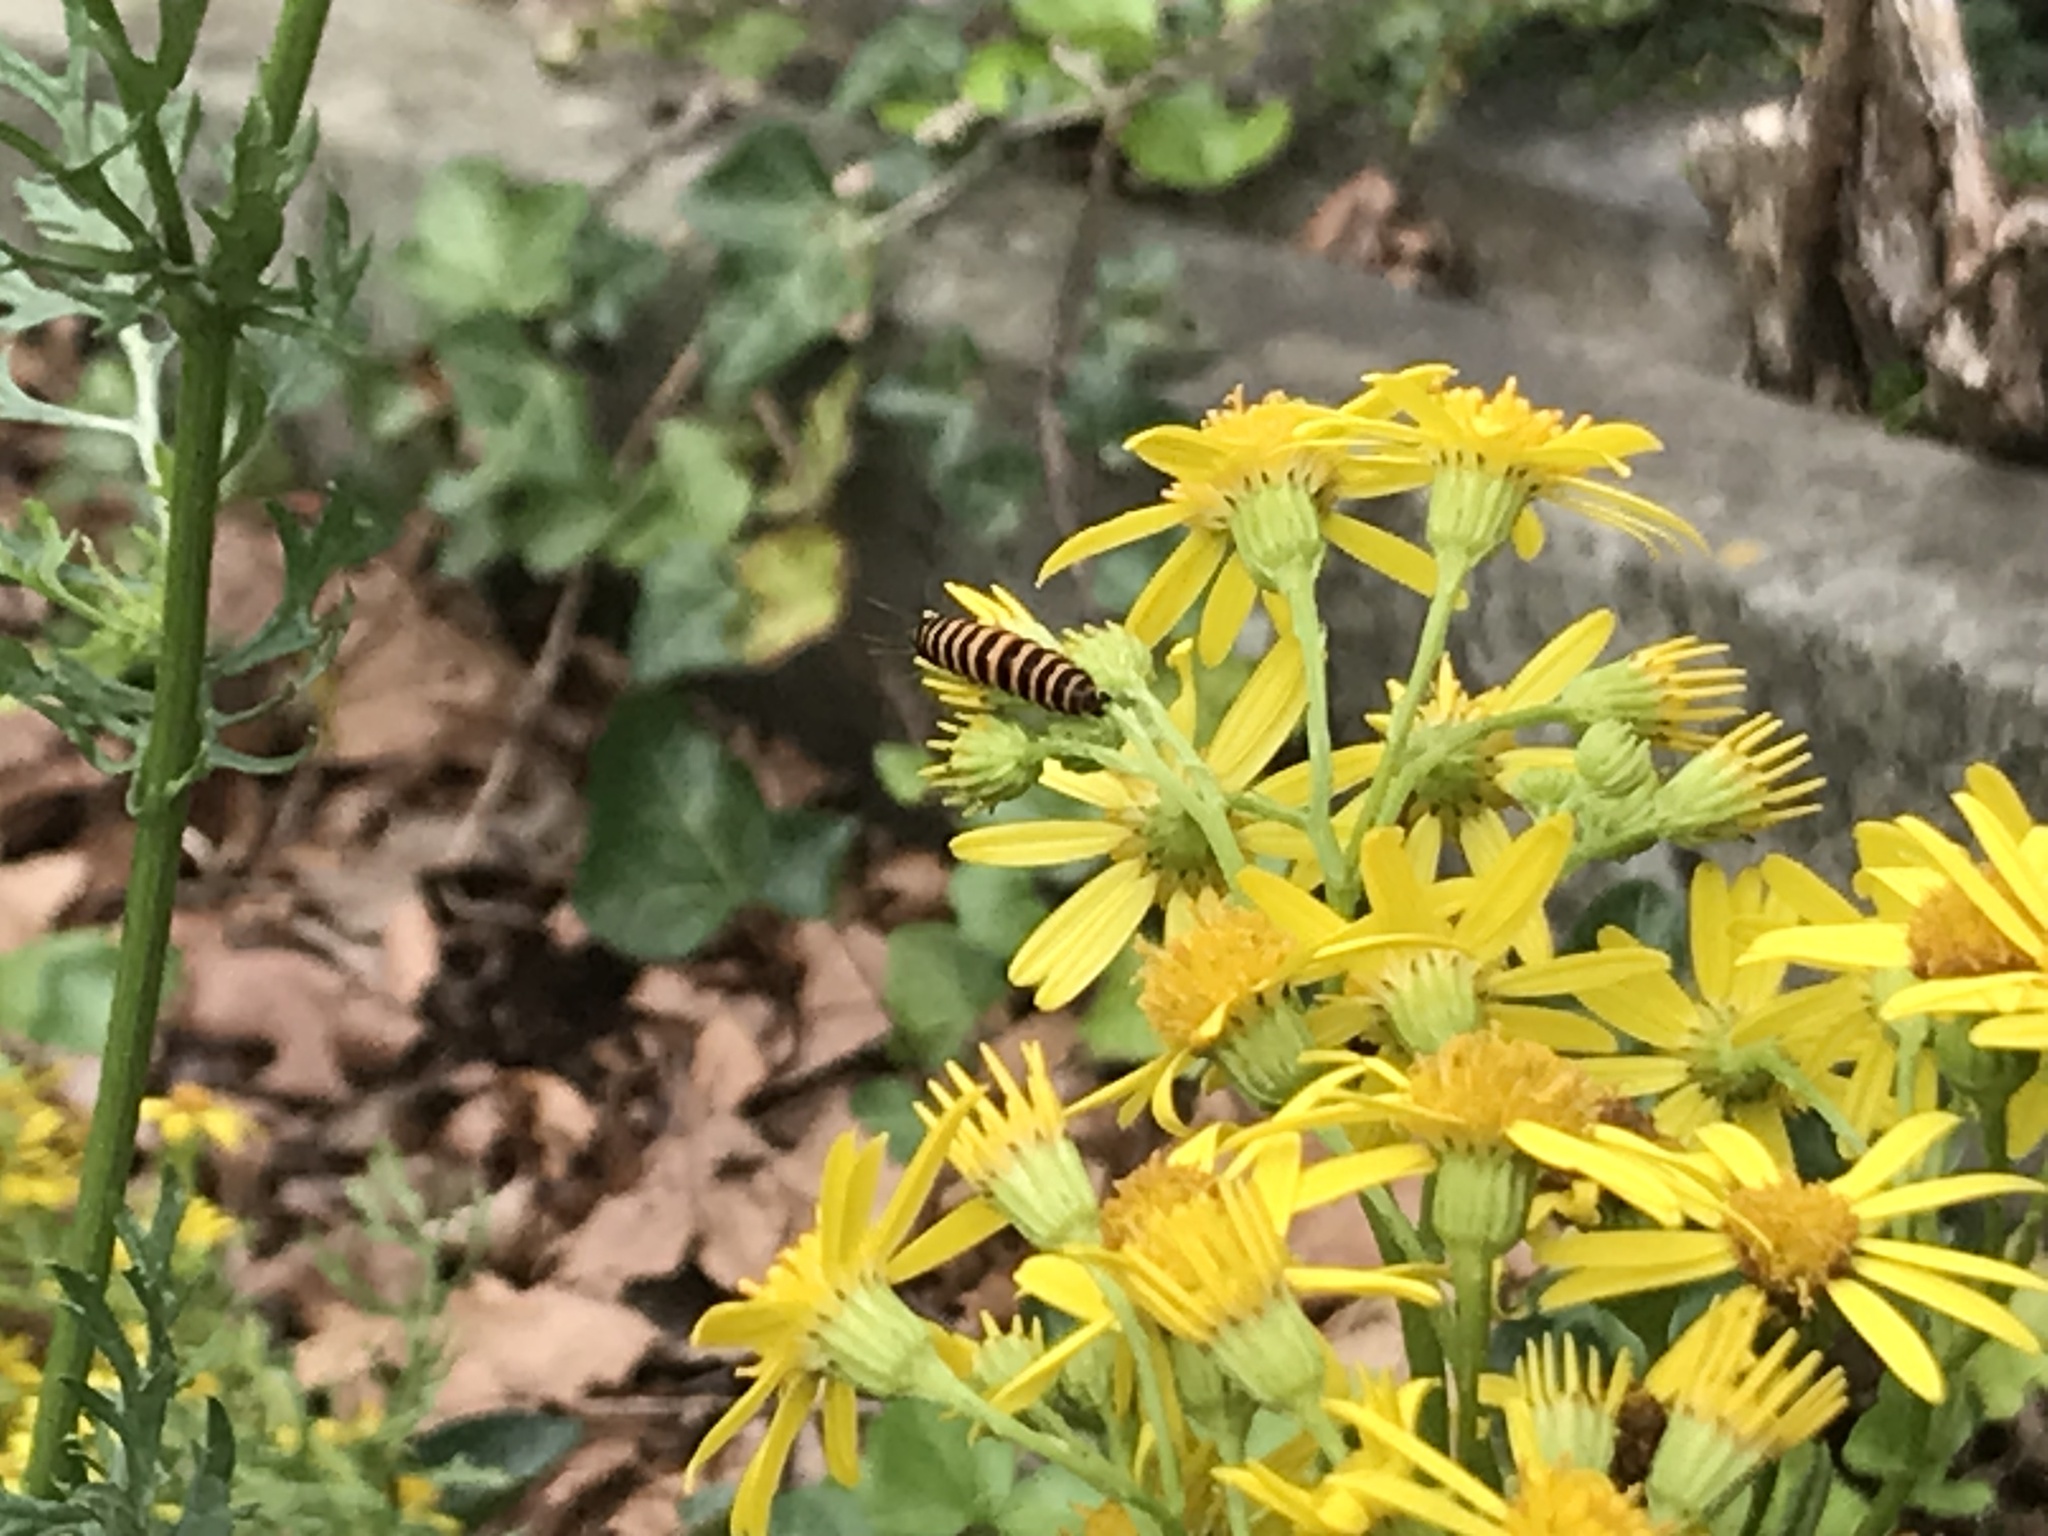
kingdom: Animalia
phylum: Arthropoda
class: Insecta
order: Lepidoptera
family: Erebidae
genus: Tyria
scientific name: Tyria jacobaeae
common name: Cinnabar
